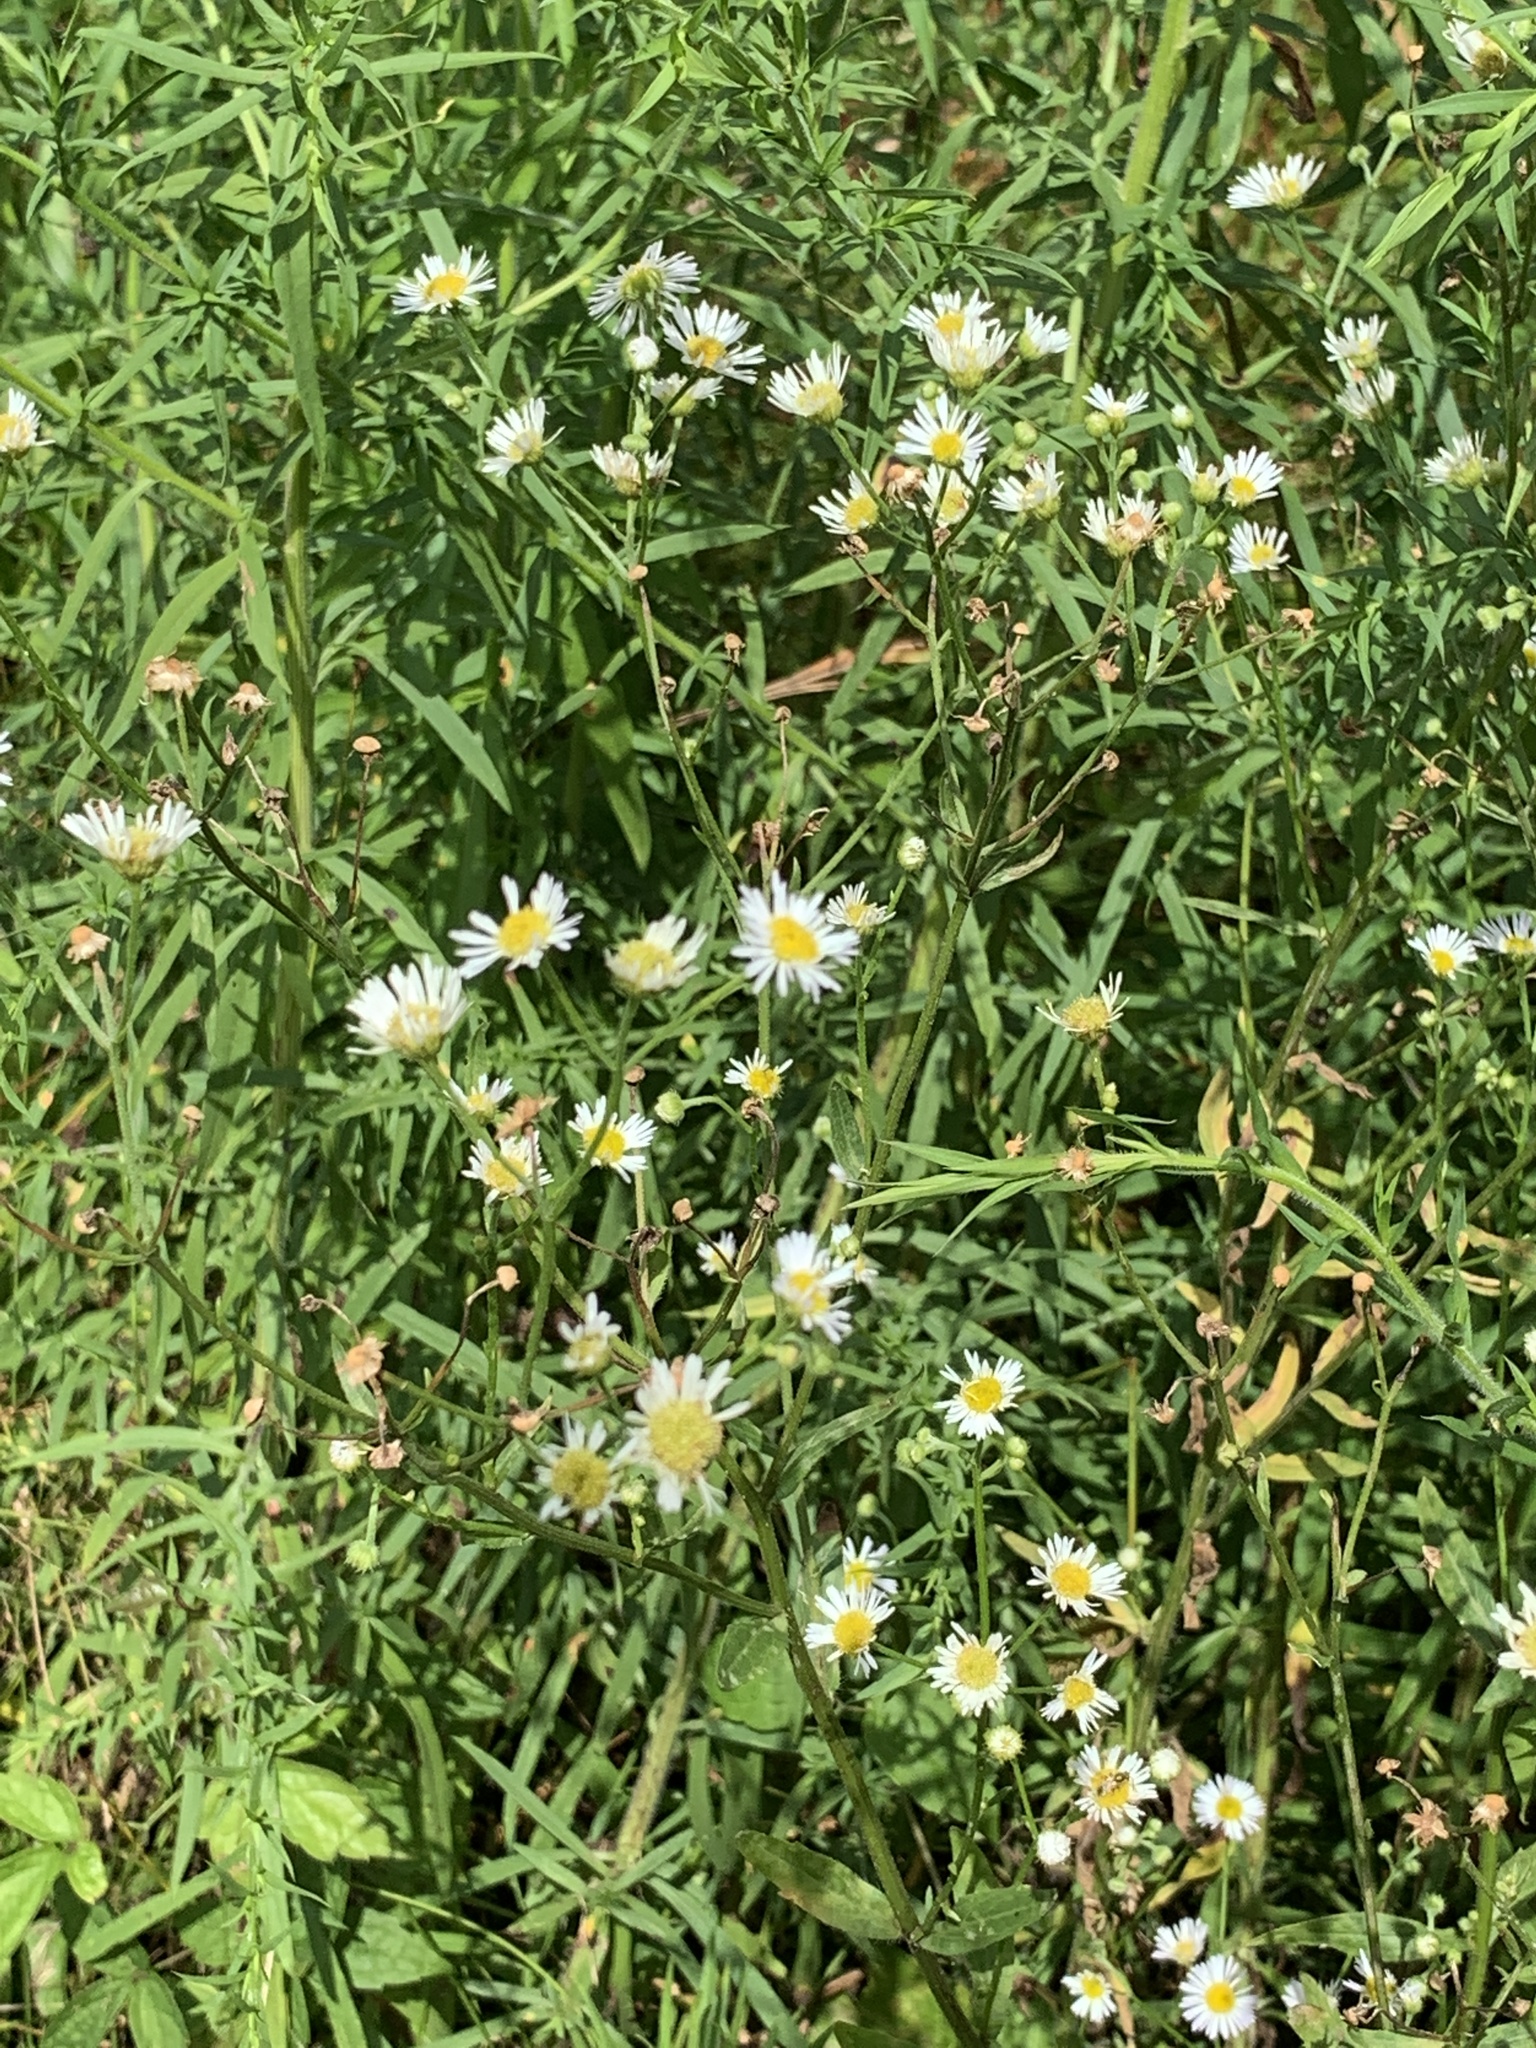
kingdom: Plantae
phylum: Tracheophyta
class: Magnoliopsida
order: Asterales
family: Asteraceae
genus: Erigeron
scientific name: Erigeron annuus
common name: Tall fleabane
